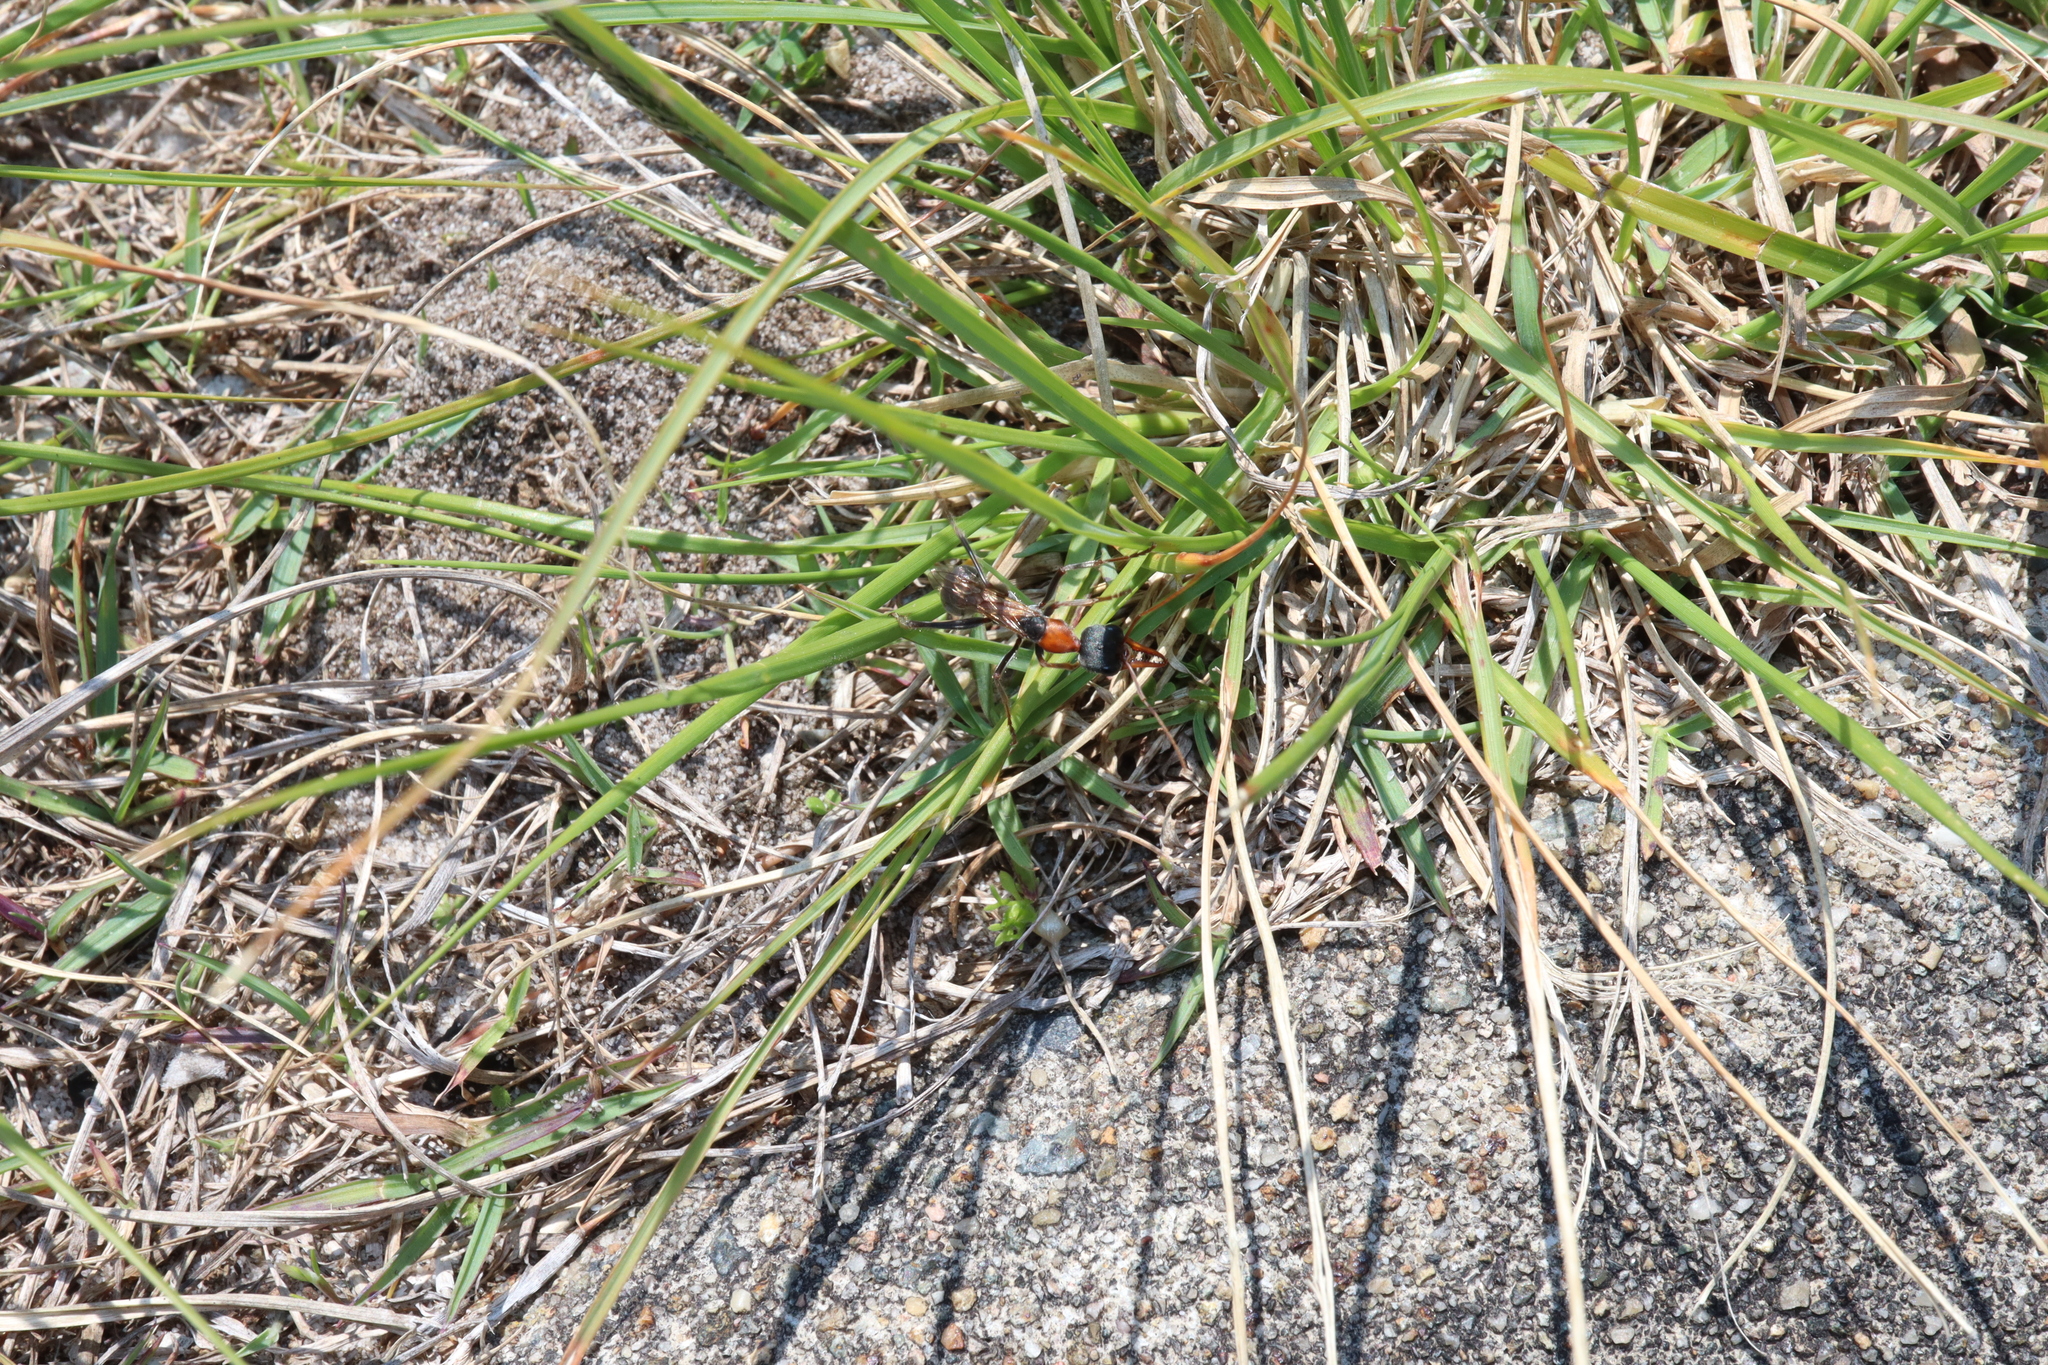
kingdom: Animalia
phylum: Arthropoda
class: Insecta
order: Hymenoptera
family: Formicidae
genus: Myrmecia
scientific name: Myrmecia nigrocincta
